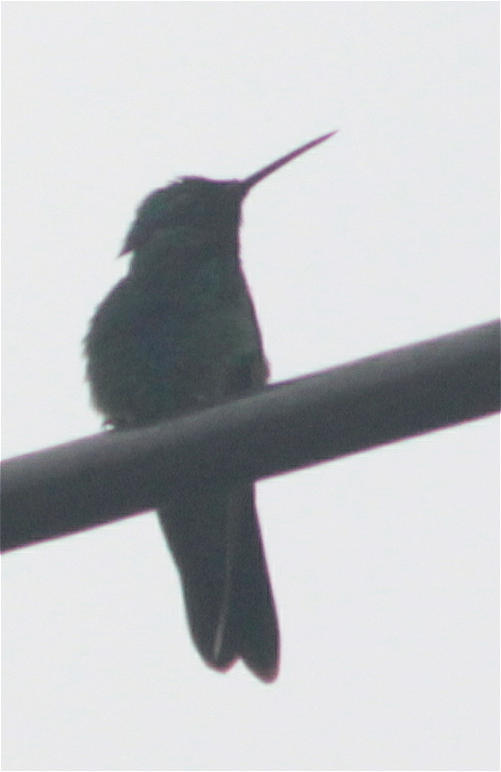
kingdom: Animalia
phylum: Chordata
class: Aves
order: Apodiformes
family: Trochilidae
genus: Colibri
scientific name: Colibri coruscans
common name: Sparkling violetear
